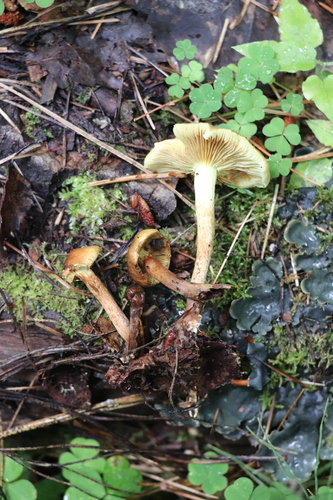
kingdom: Fungi
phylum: Basidiomycota
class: Agaricomycetes
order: Agaricales
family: Strophariaceae
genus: Pholiota
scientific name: Pholiota elegans
